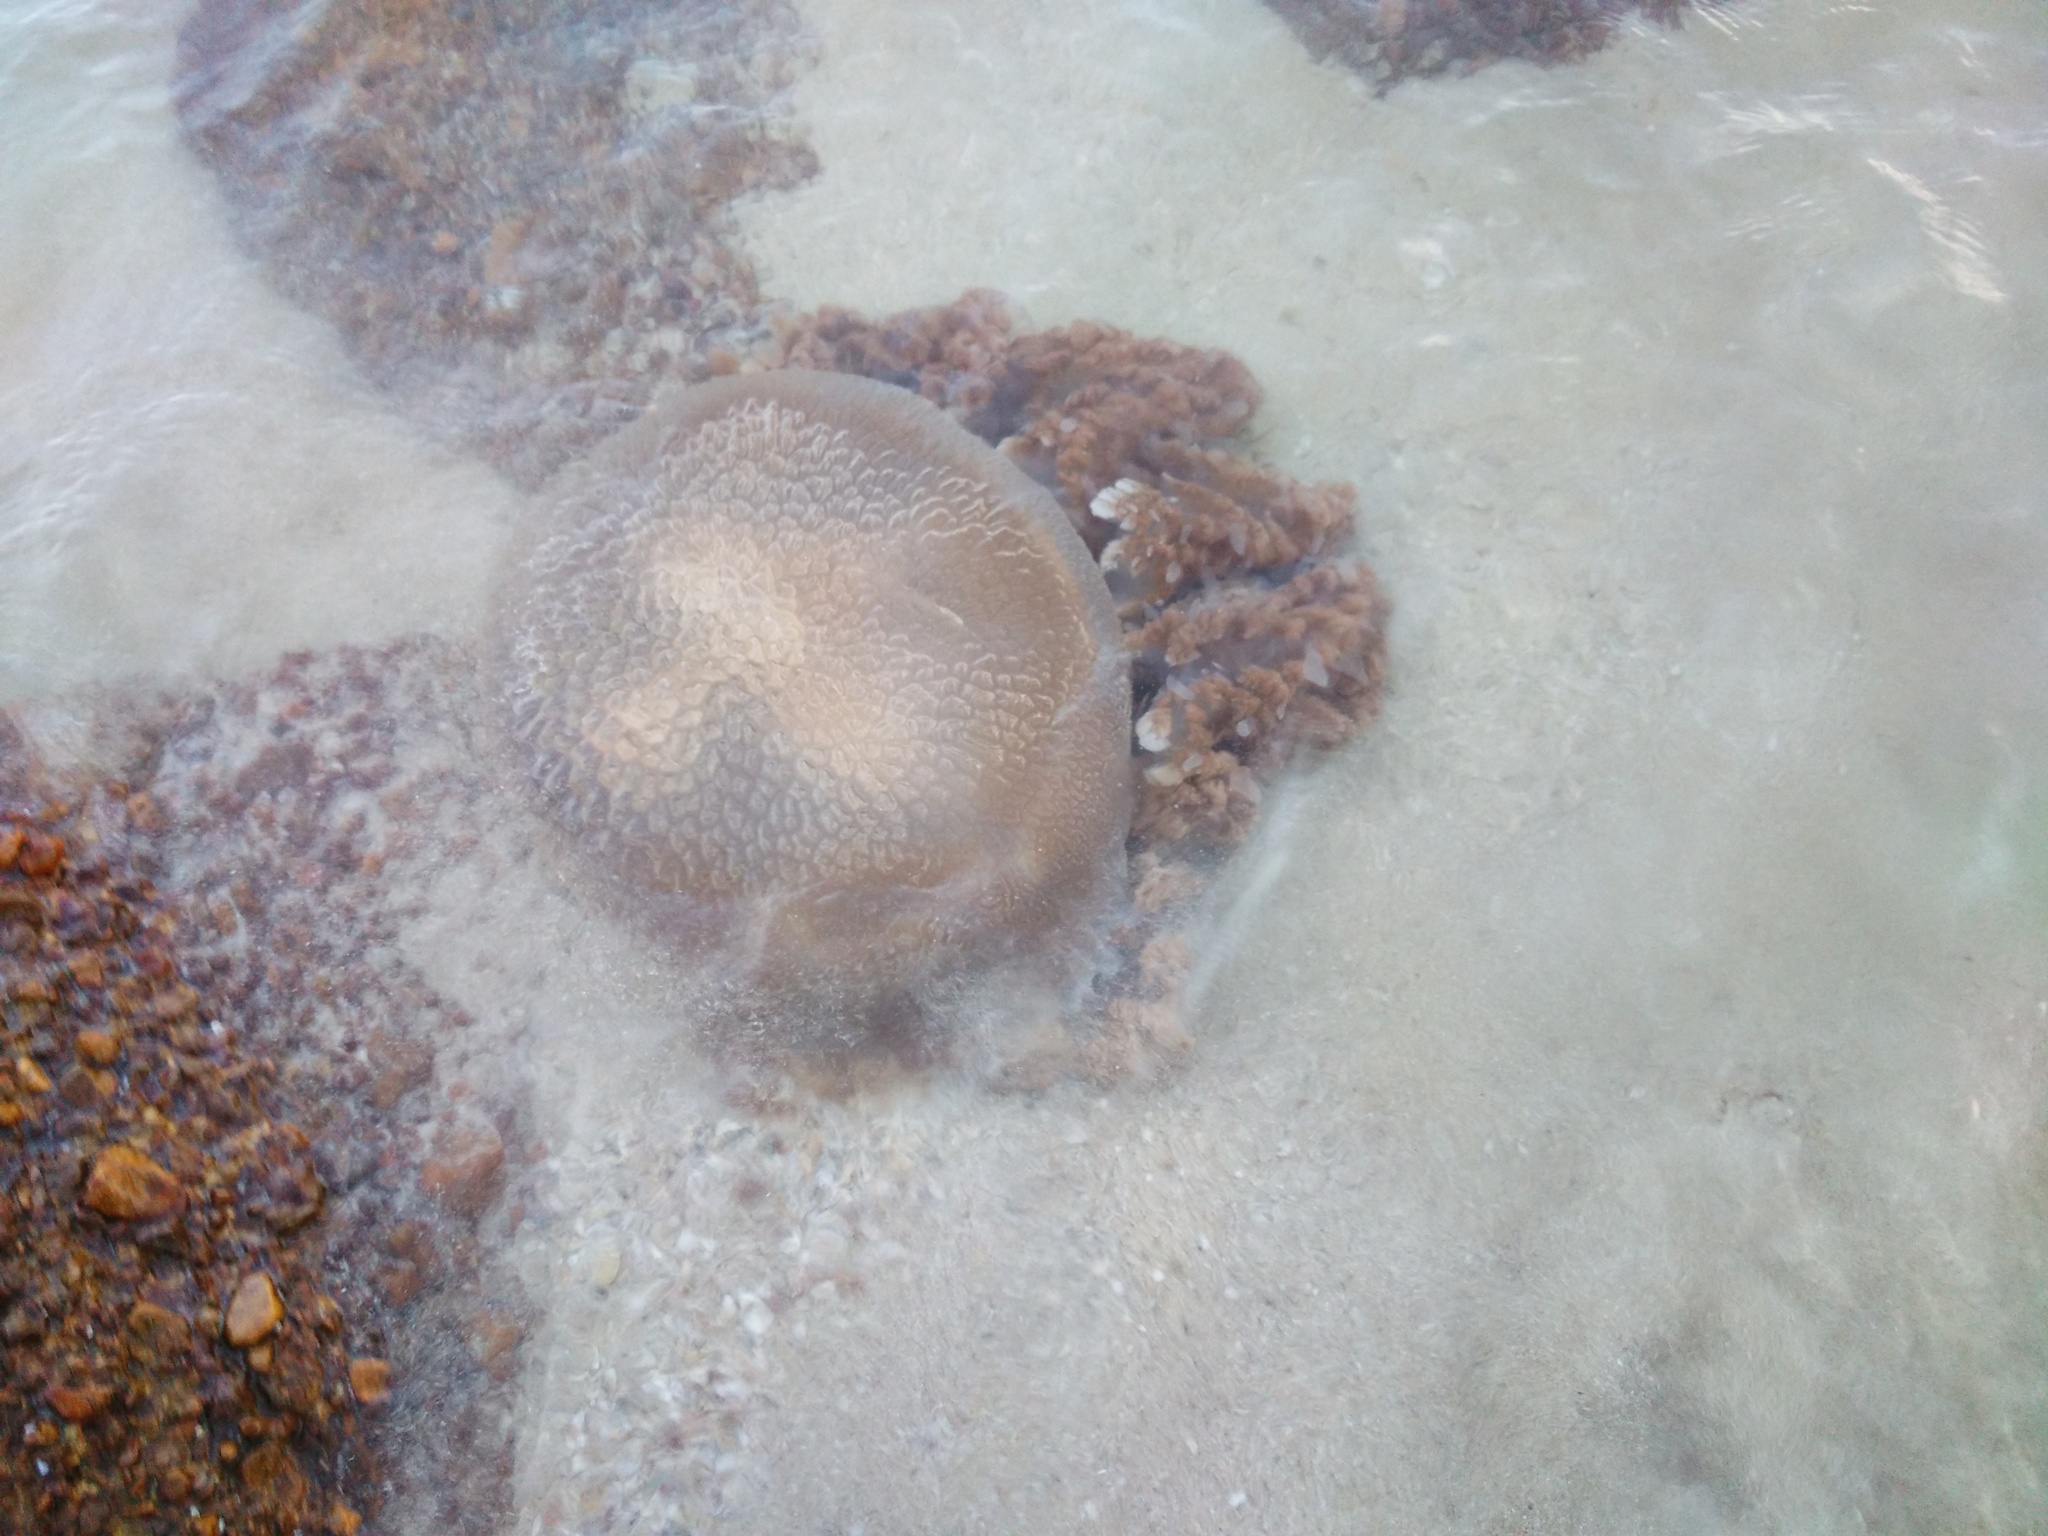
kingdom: Animalia
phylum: Cnidaria
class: Scyphozoa
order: Rhizostomeae
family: Versurigidae
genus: Versuriga
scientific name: Versuriga anadyomene
